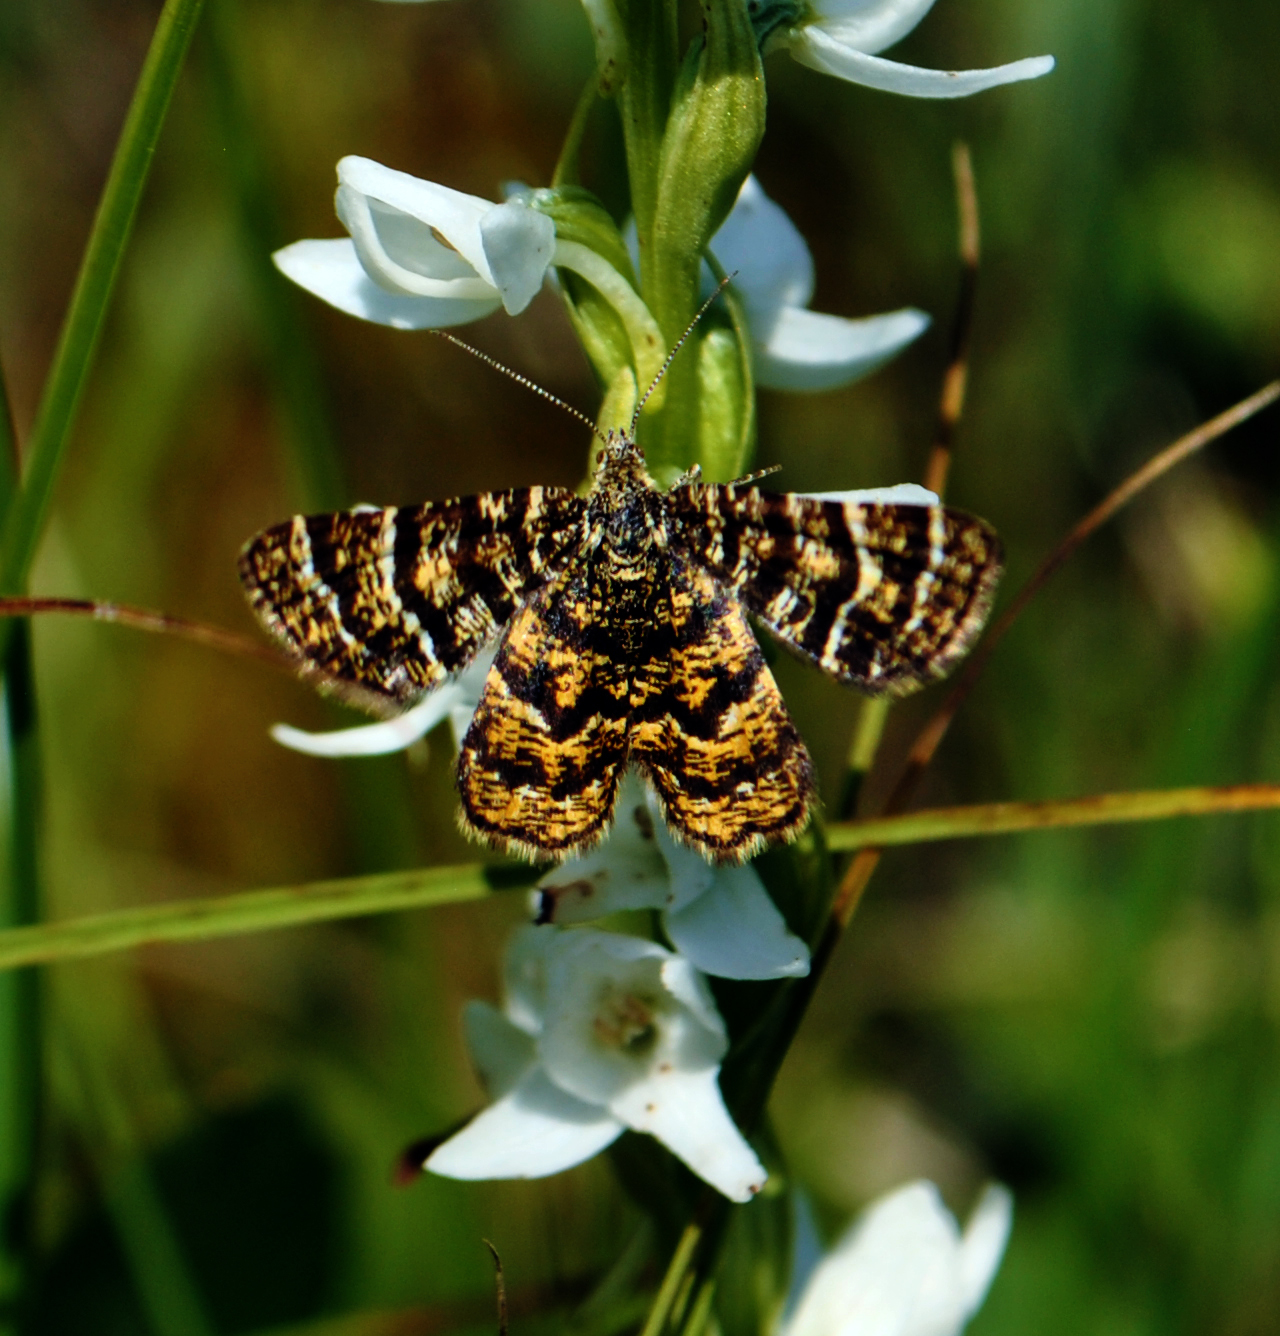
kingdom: Animalia
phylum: Arthropoda
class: Insecta
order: Lepidoptera
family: Geometridae
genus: Macaria
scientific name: Macaria truncataria
